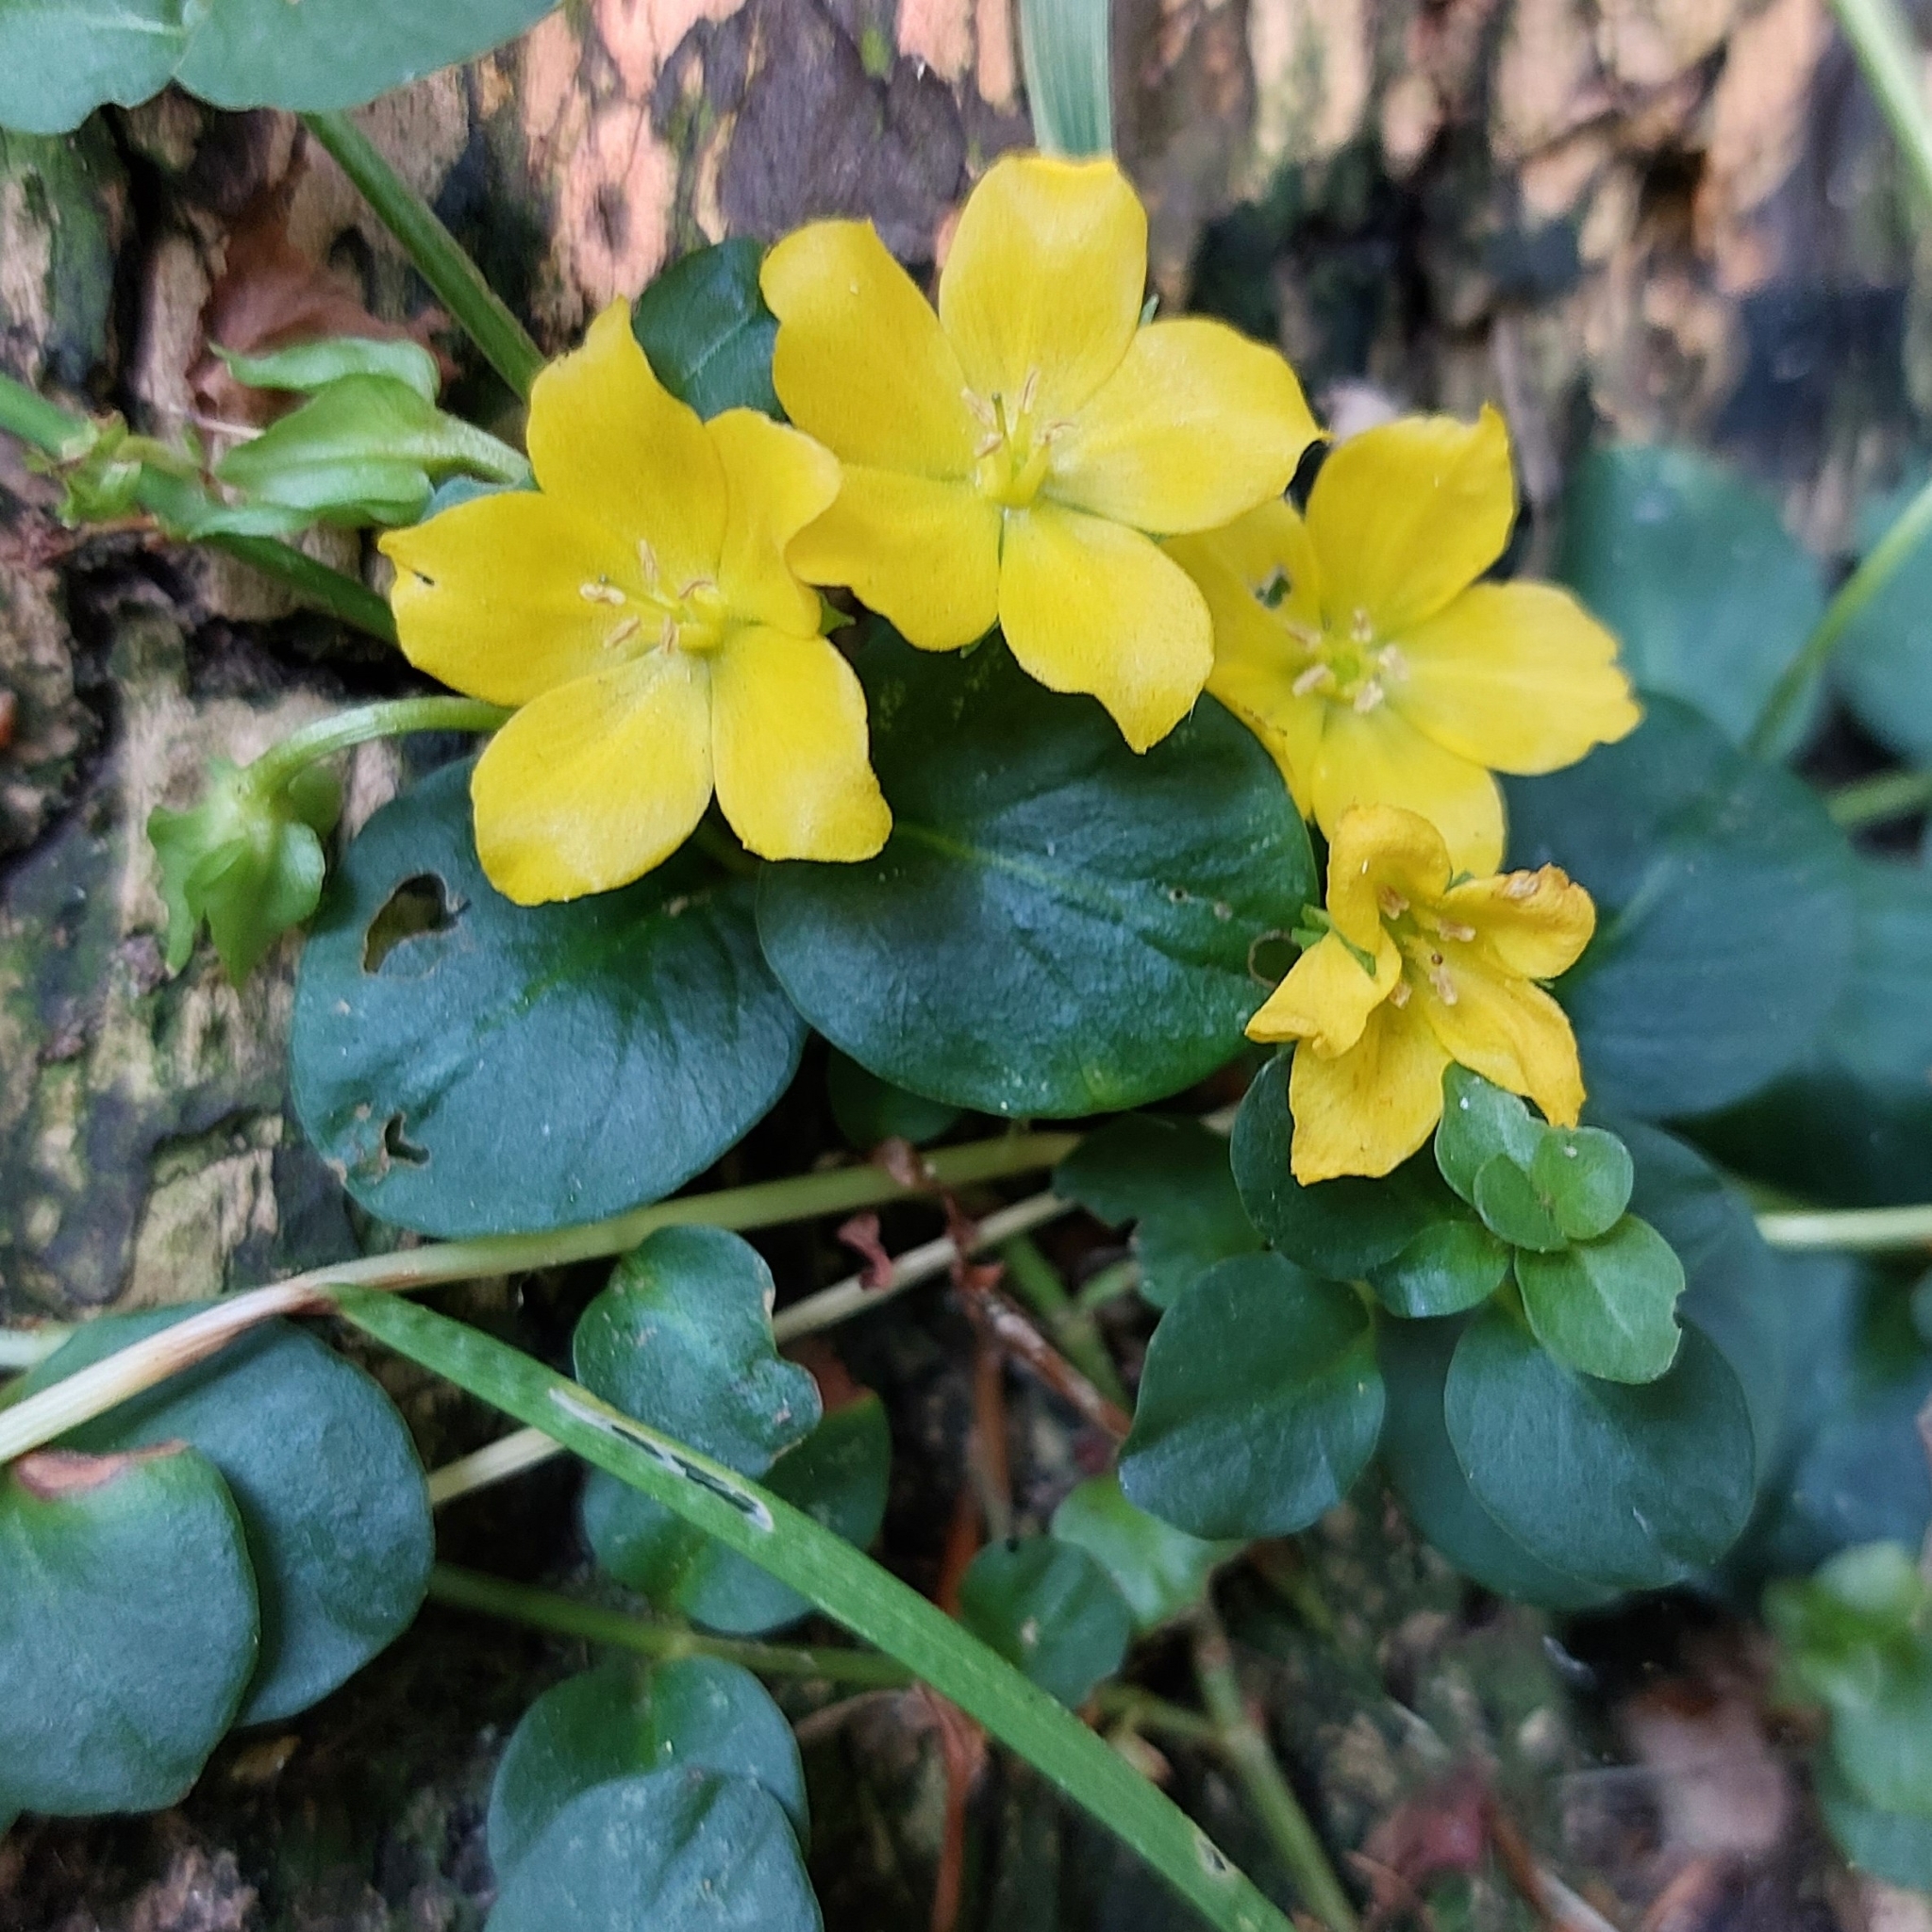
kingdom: Plantae
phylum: Tracheophyta
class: Magnoliopsida
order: Ericales
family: Primulaceae
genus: Lysimachia
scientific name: Lysimachia nummularia
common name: Moneywort
